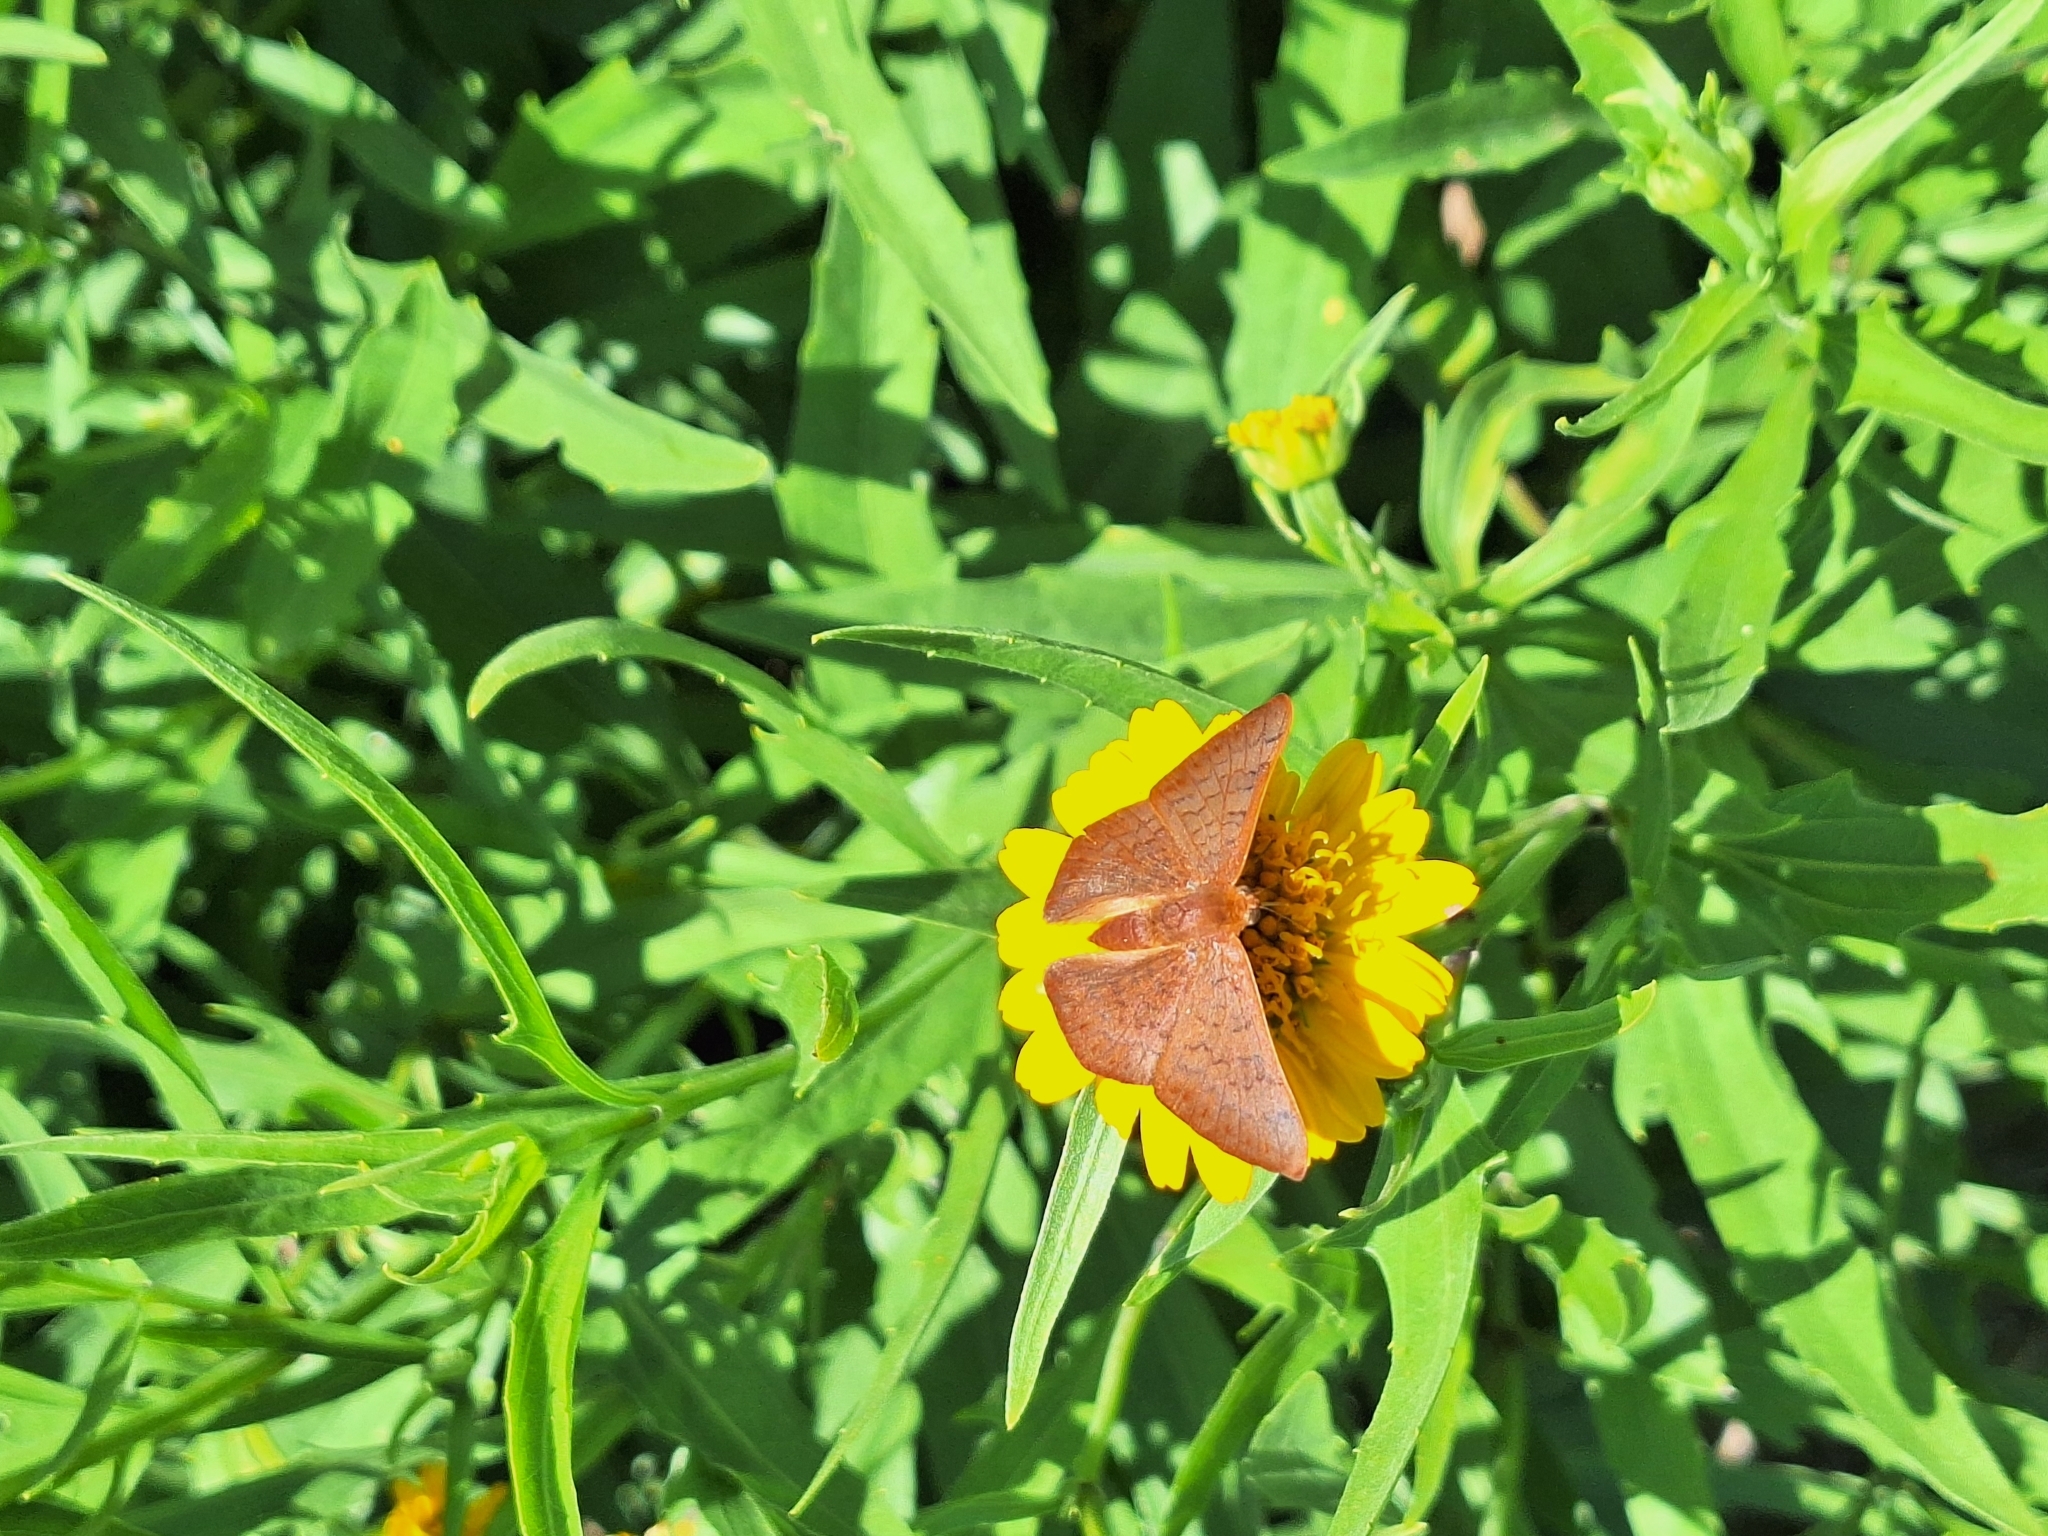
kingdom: Animalia
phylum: Arthropoda
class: Insecta
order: Lepidoptera
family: Lycaenidae
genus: Emesis
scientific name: Emesis russula
